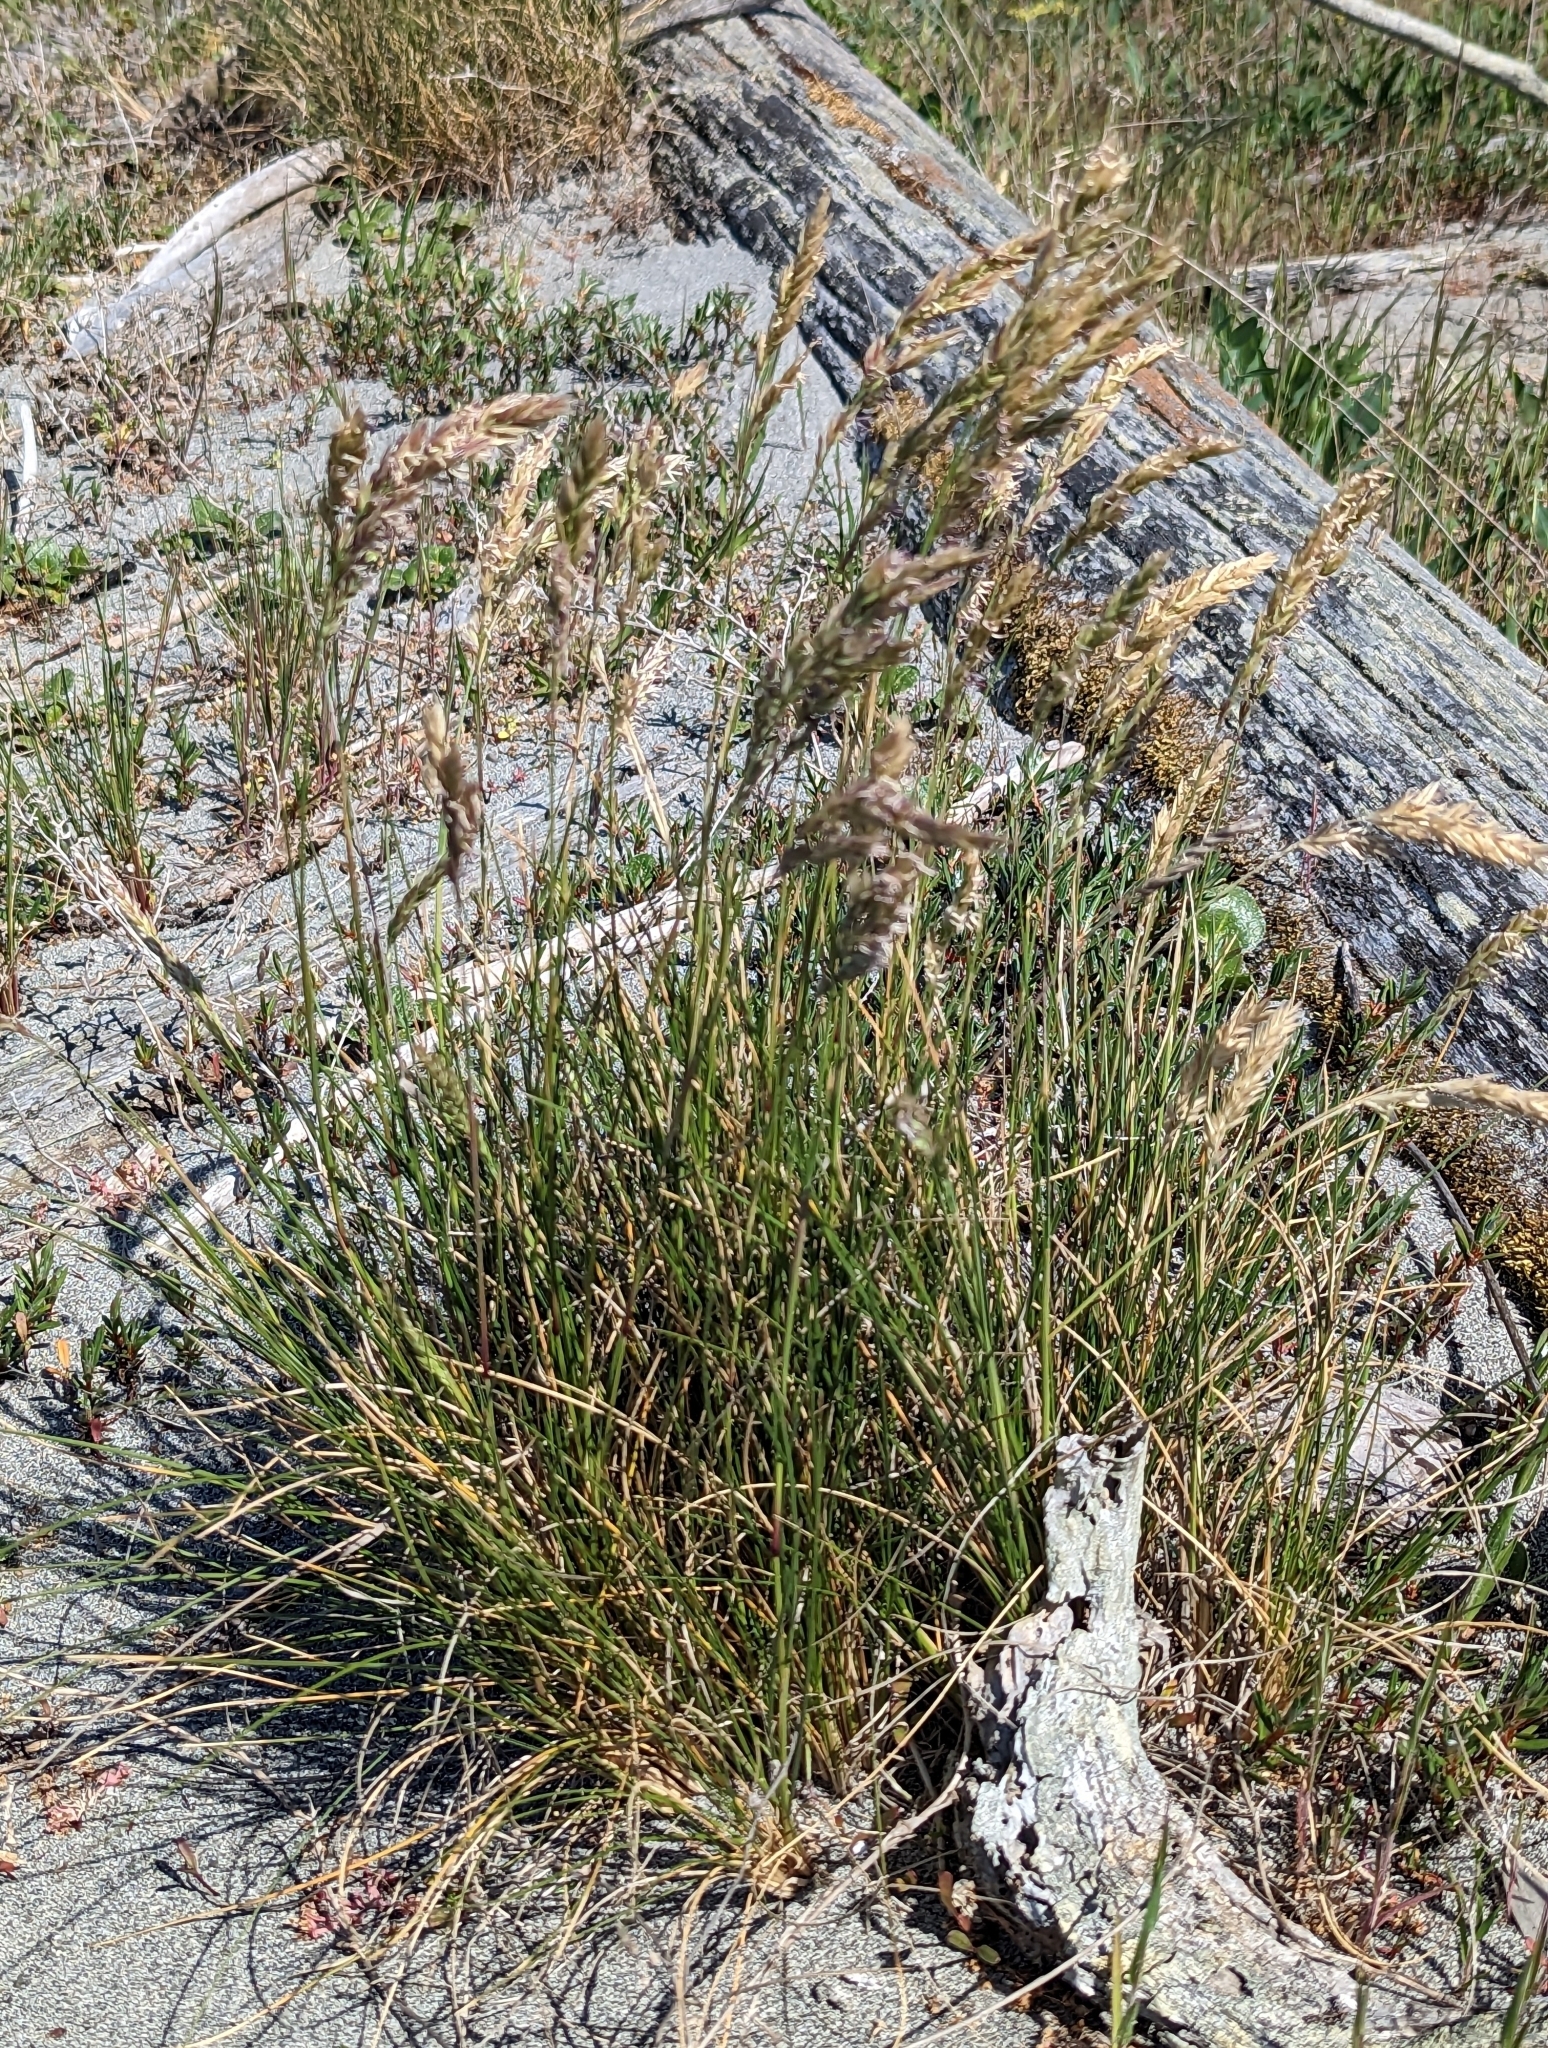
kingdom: Plantae
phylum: Tracheophyta
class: Liliopsida
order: Poales
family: Poaceae
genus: Poa
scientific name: Poa macrantha
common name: Dune bluegrass
